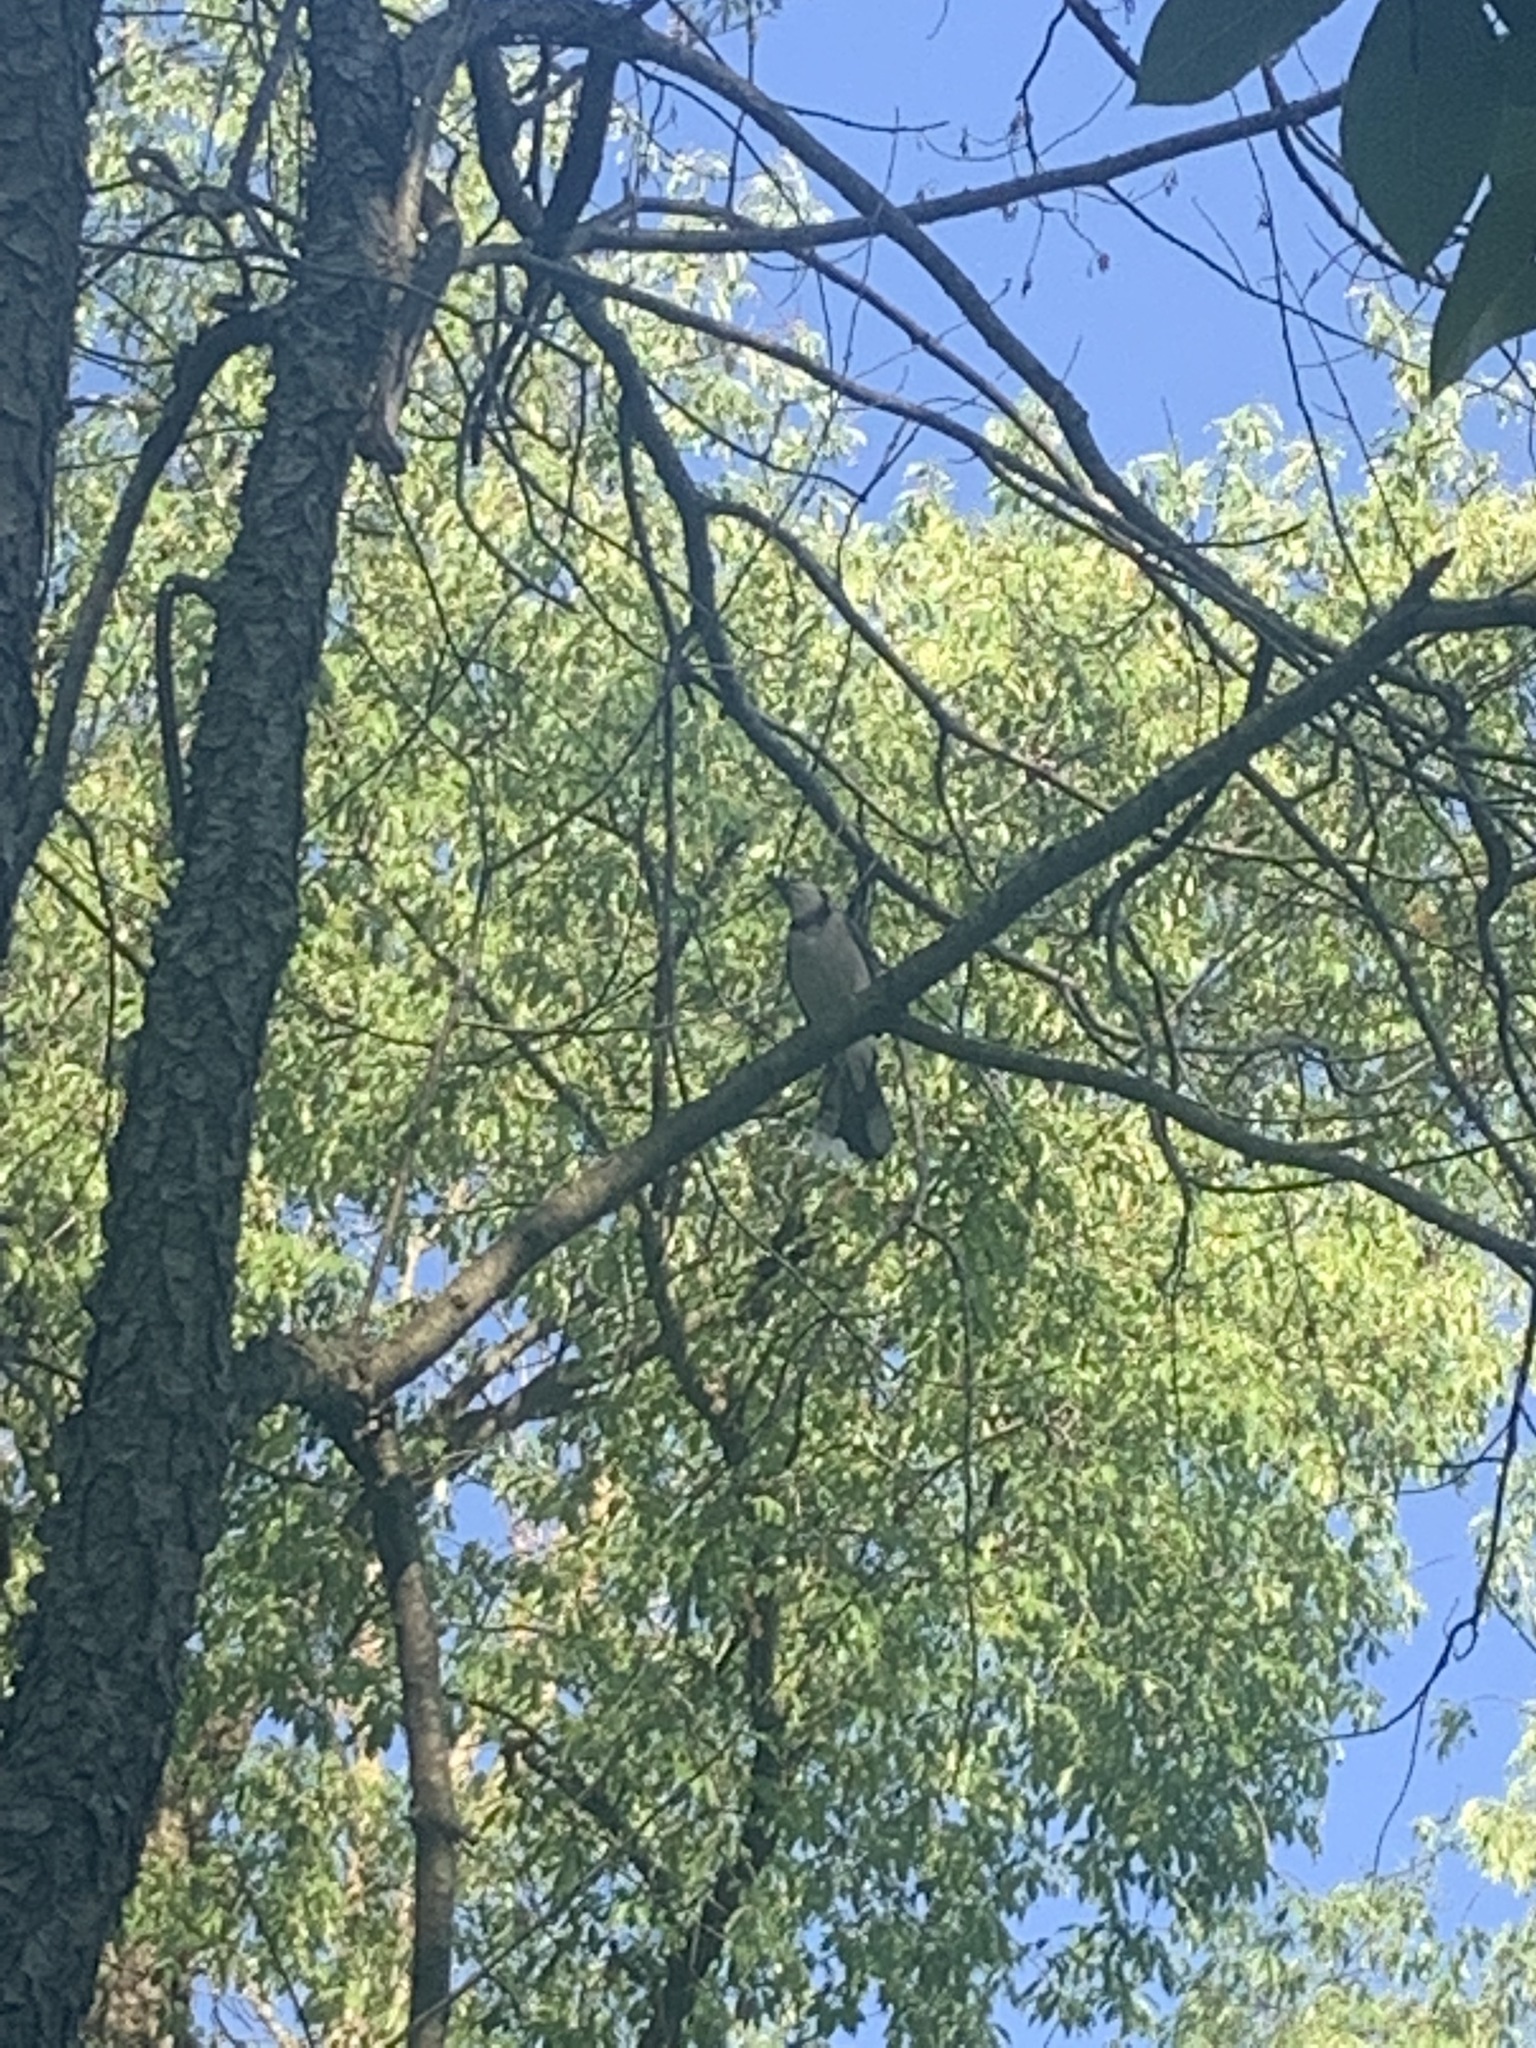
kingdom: Animalia
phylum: Chordata
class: Aves
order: Passeriformes
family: Corvidae
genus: Cyanocitta
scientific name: Cyanocitta cristata
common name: Blue jay
